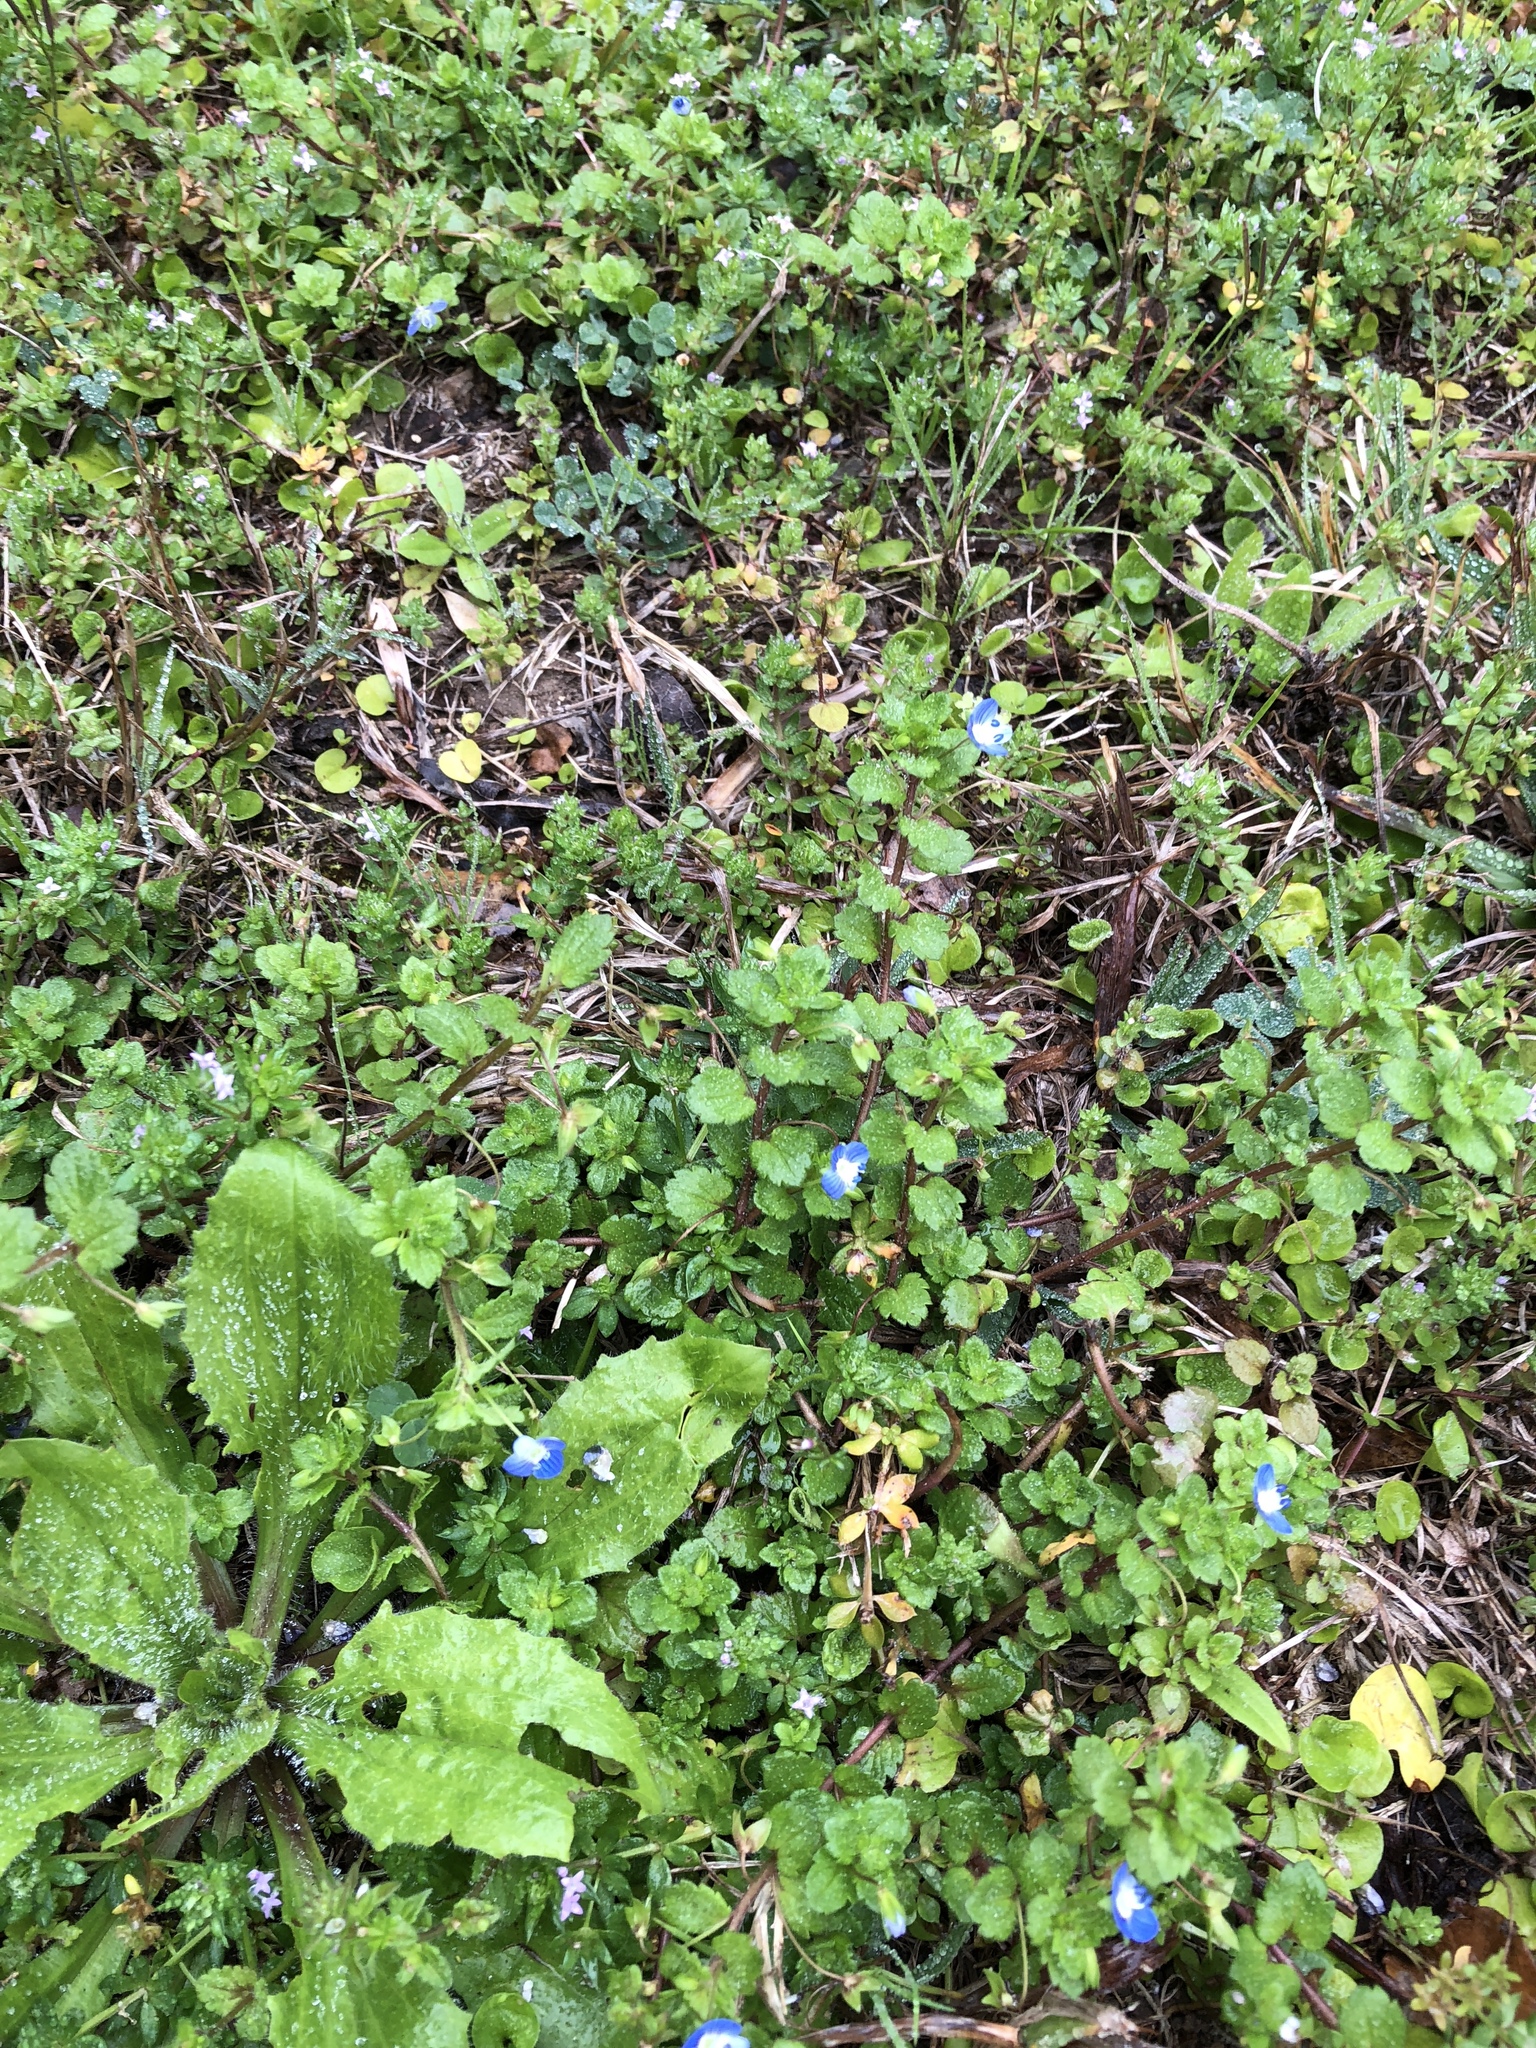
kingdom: Plantae
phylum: Tracheophyta
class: Magnoliopsida
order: Lamiales
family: Plantaginaceae
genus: Veronica
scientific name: Veronica persica
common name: Common field-speedwell
